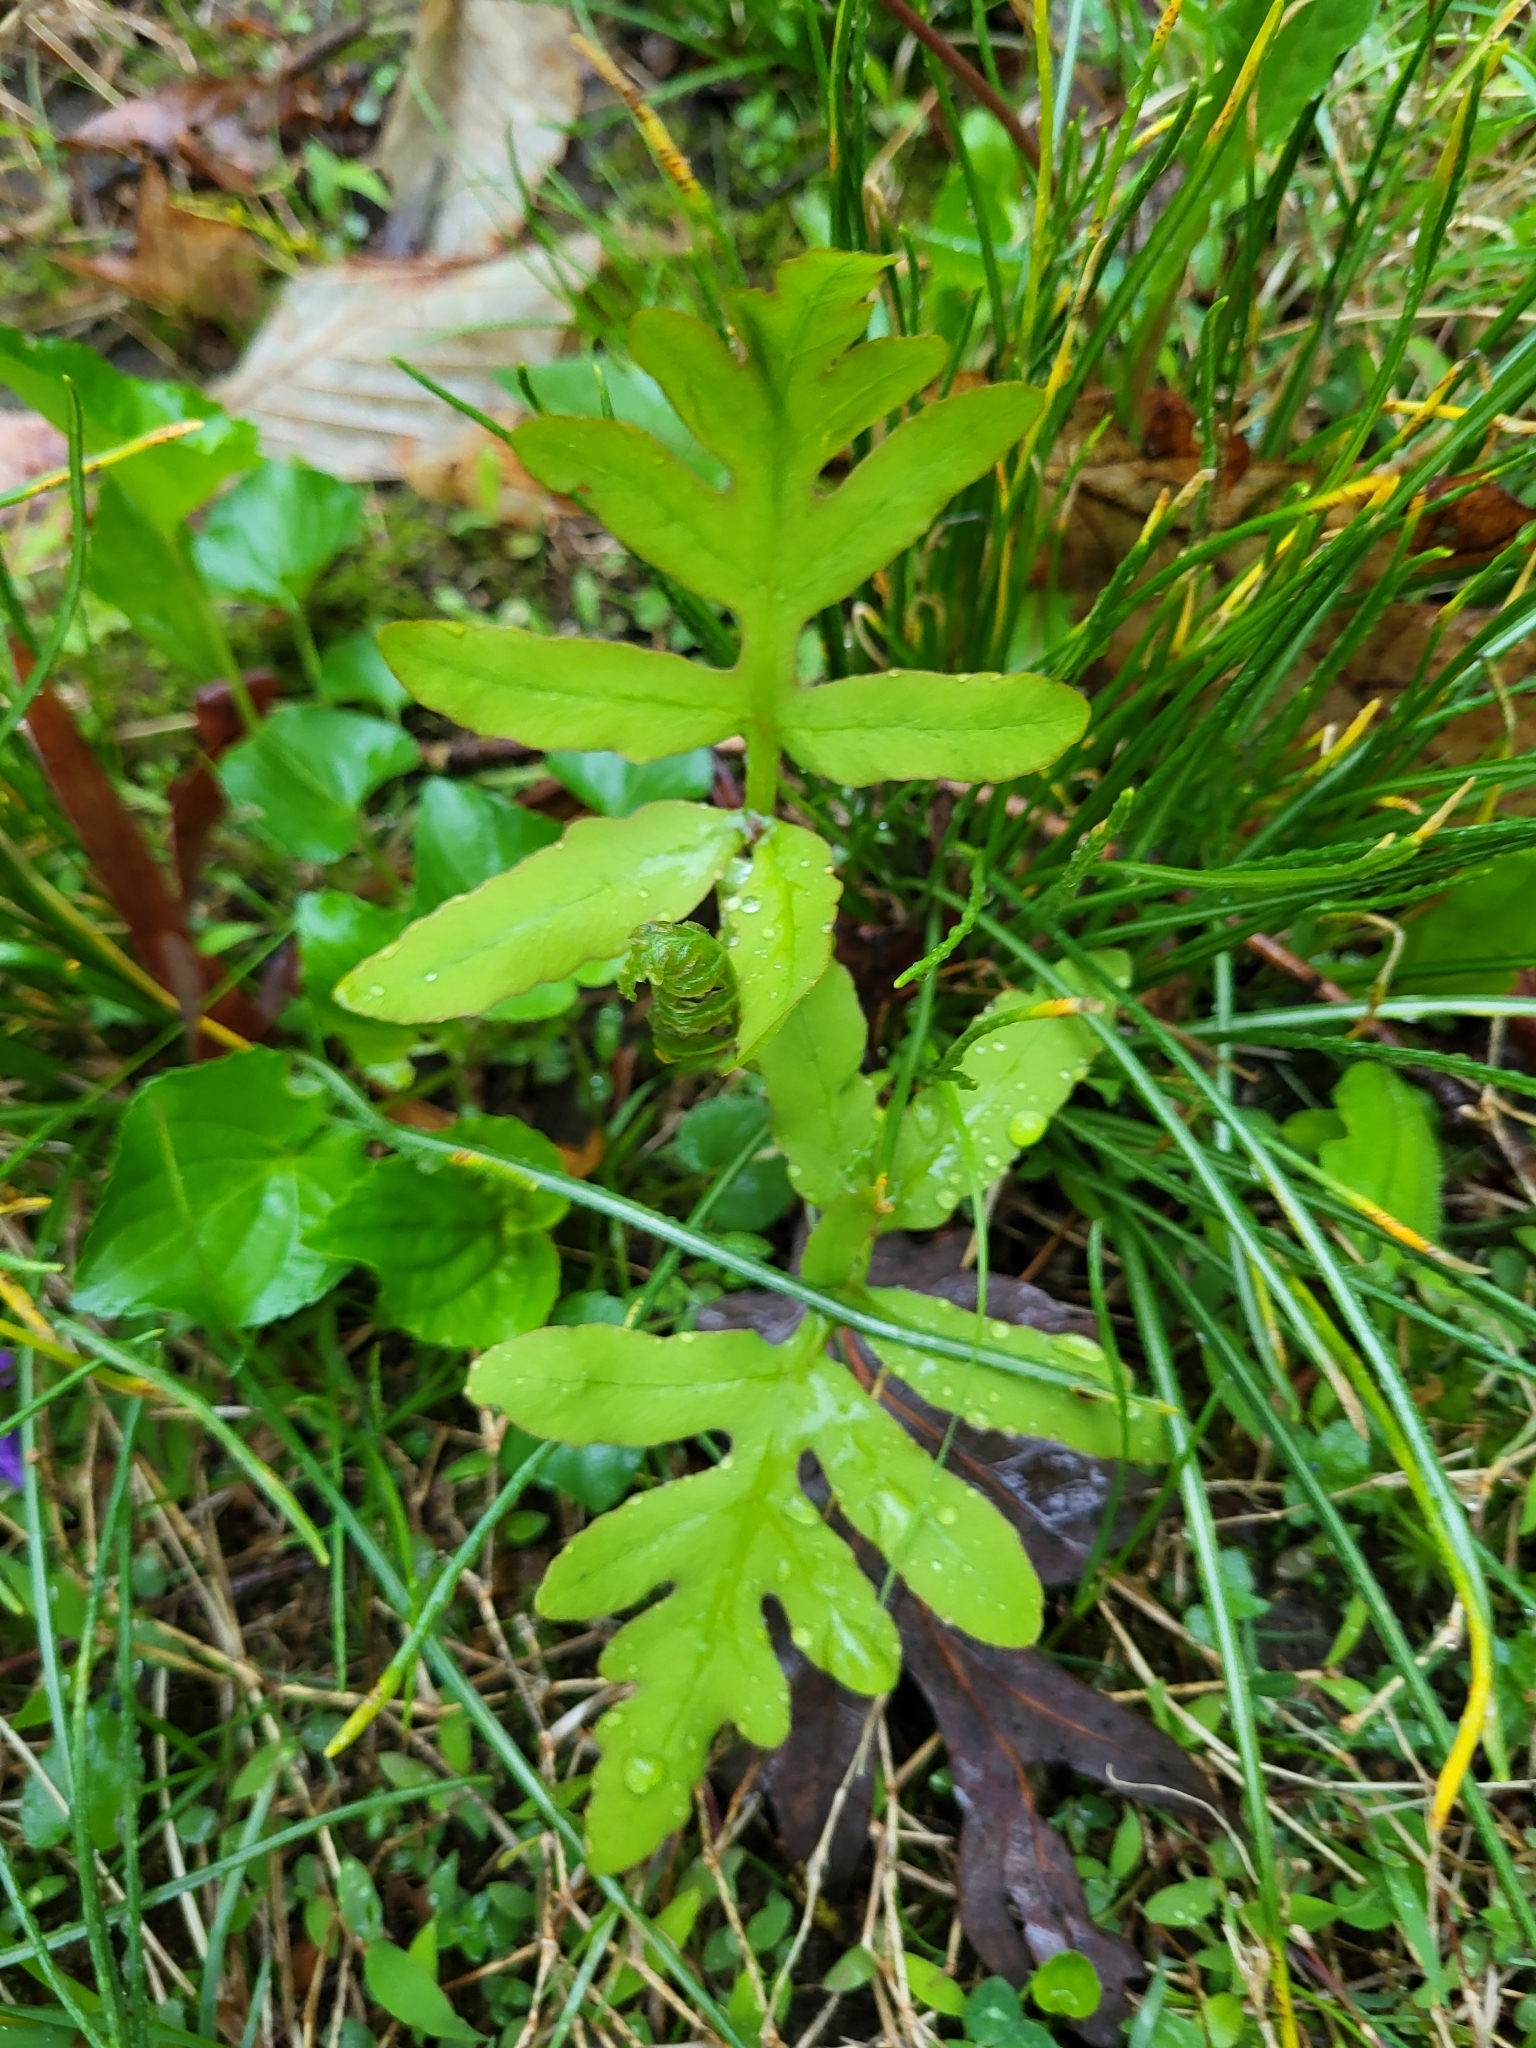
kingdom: Plantae
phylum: Tracheophyta
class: Polypodiopsida
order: Polypodiales
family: Onocleaceae
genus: Onoclea
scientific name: Onoclea sensibilis
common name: Sensitive fern
